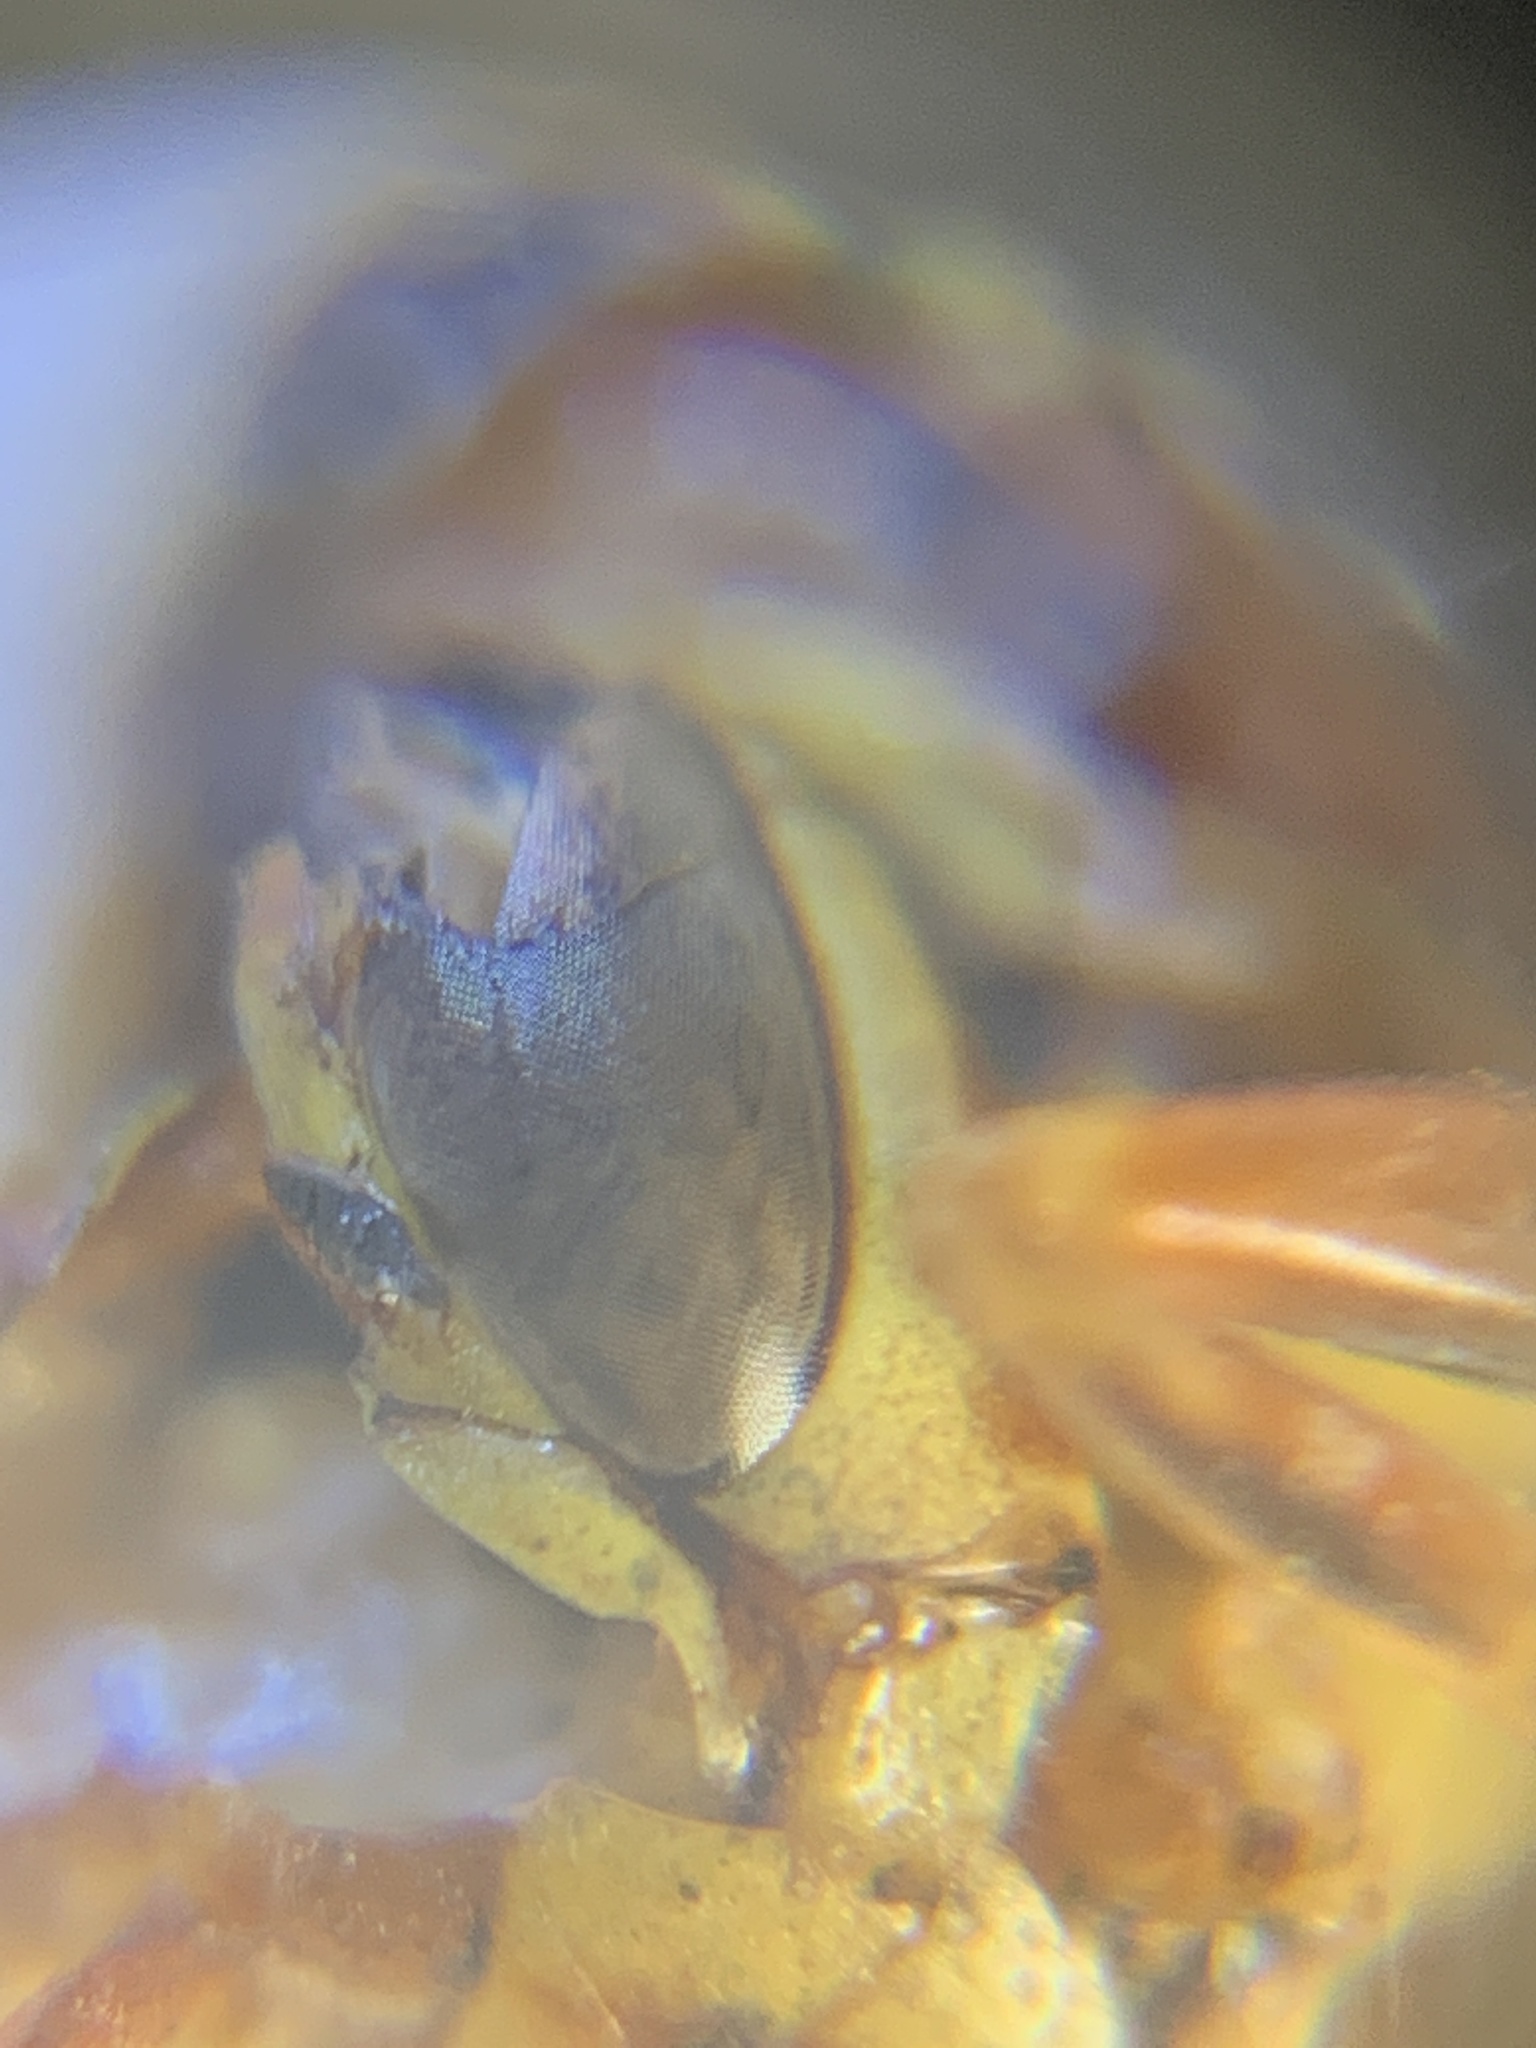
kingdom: Animalia
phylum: Arthropoda
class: Insecta
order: Hymenoptera
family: Eumenidae
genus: Polistes
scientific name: Polistes exclamans
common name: Paper wasp
